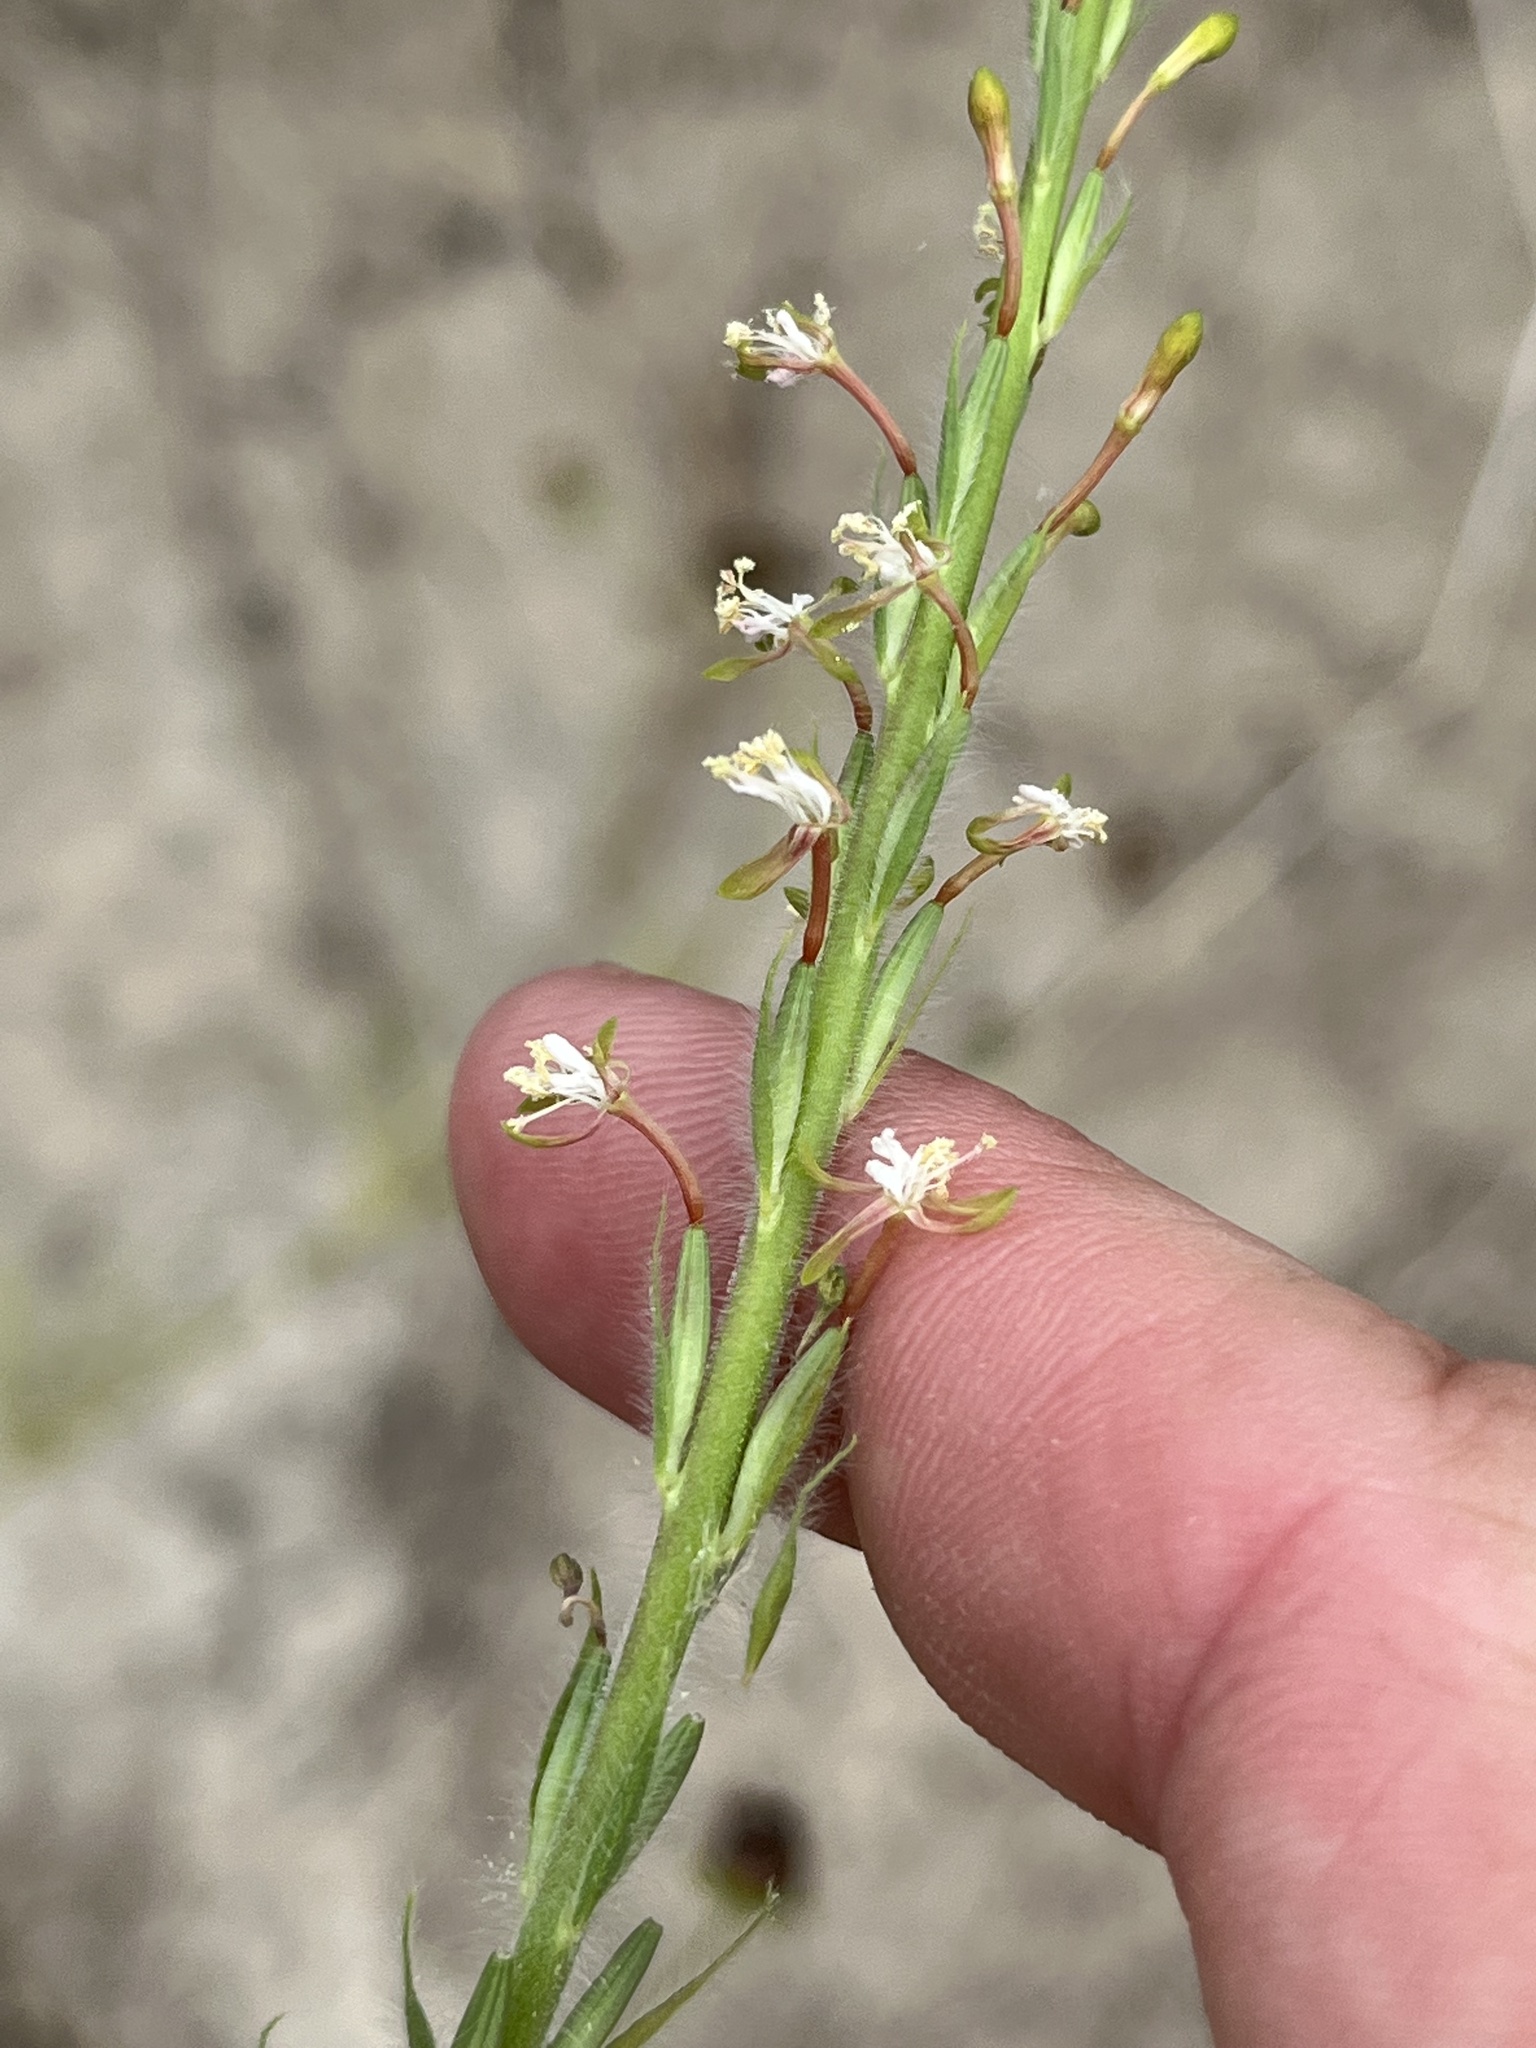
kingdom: Plantae
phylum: Tracheophyta
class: Magnoliopsida
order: Myrtales
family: Onagraceae
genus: Oenothera
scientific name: Oenothera curtiflora
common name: Velvetweed
